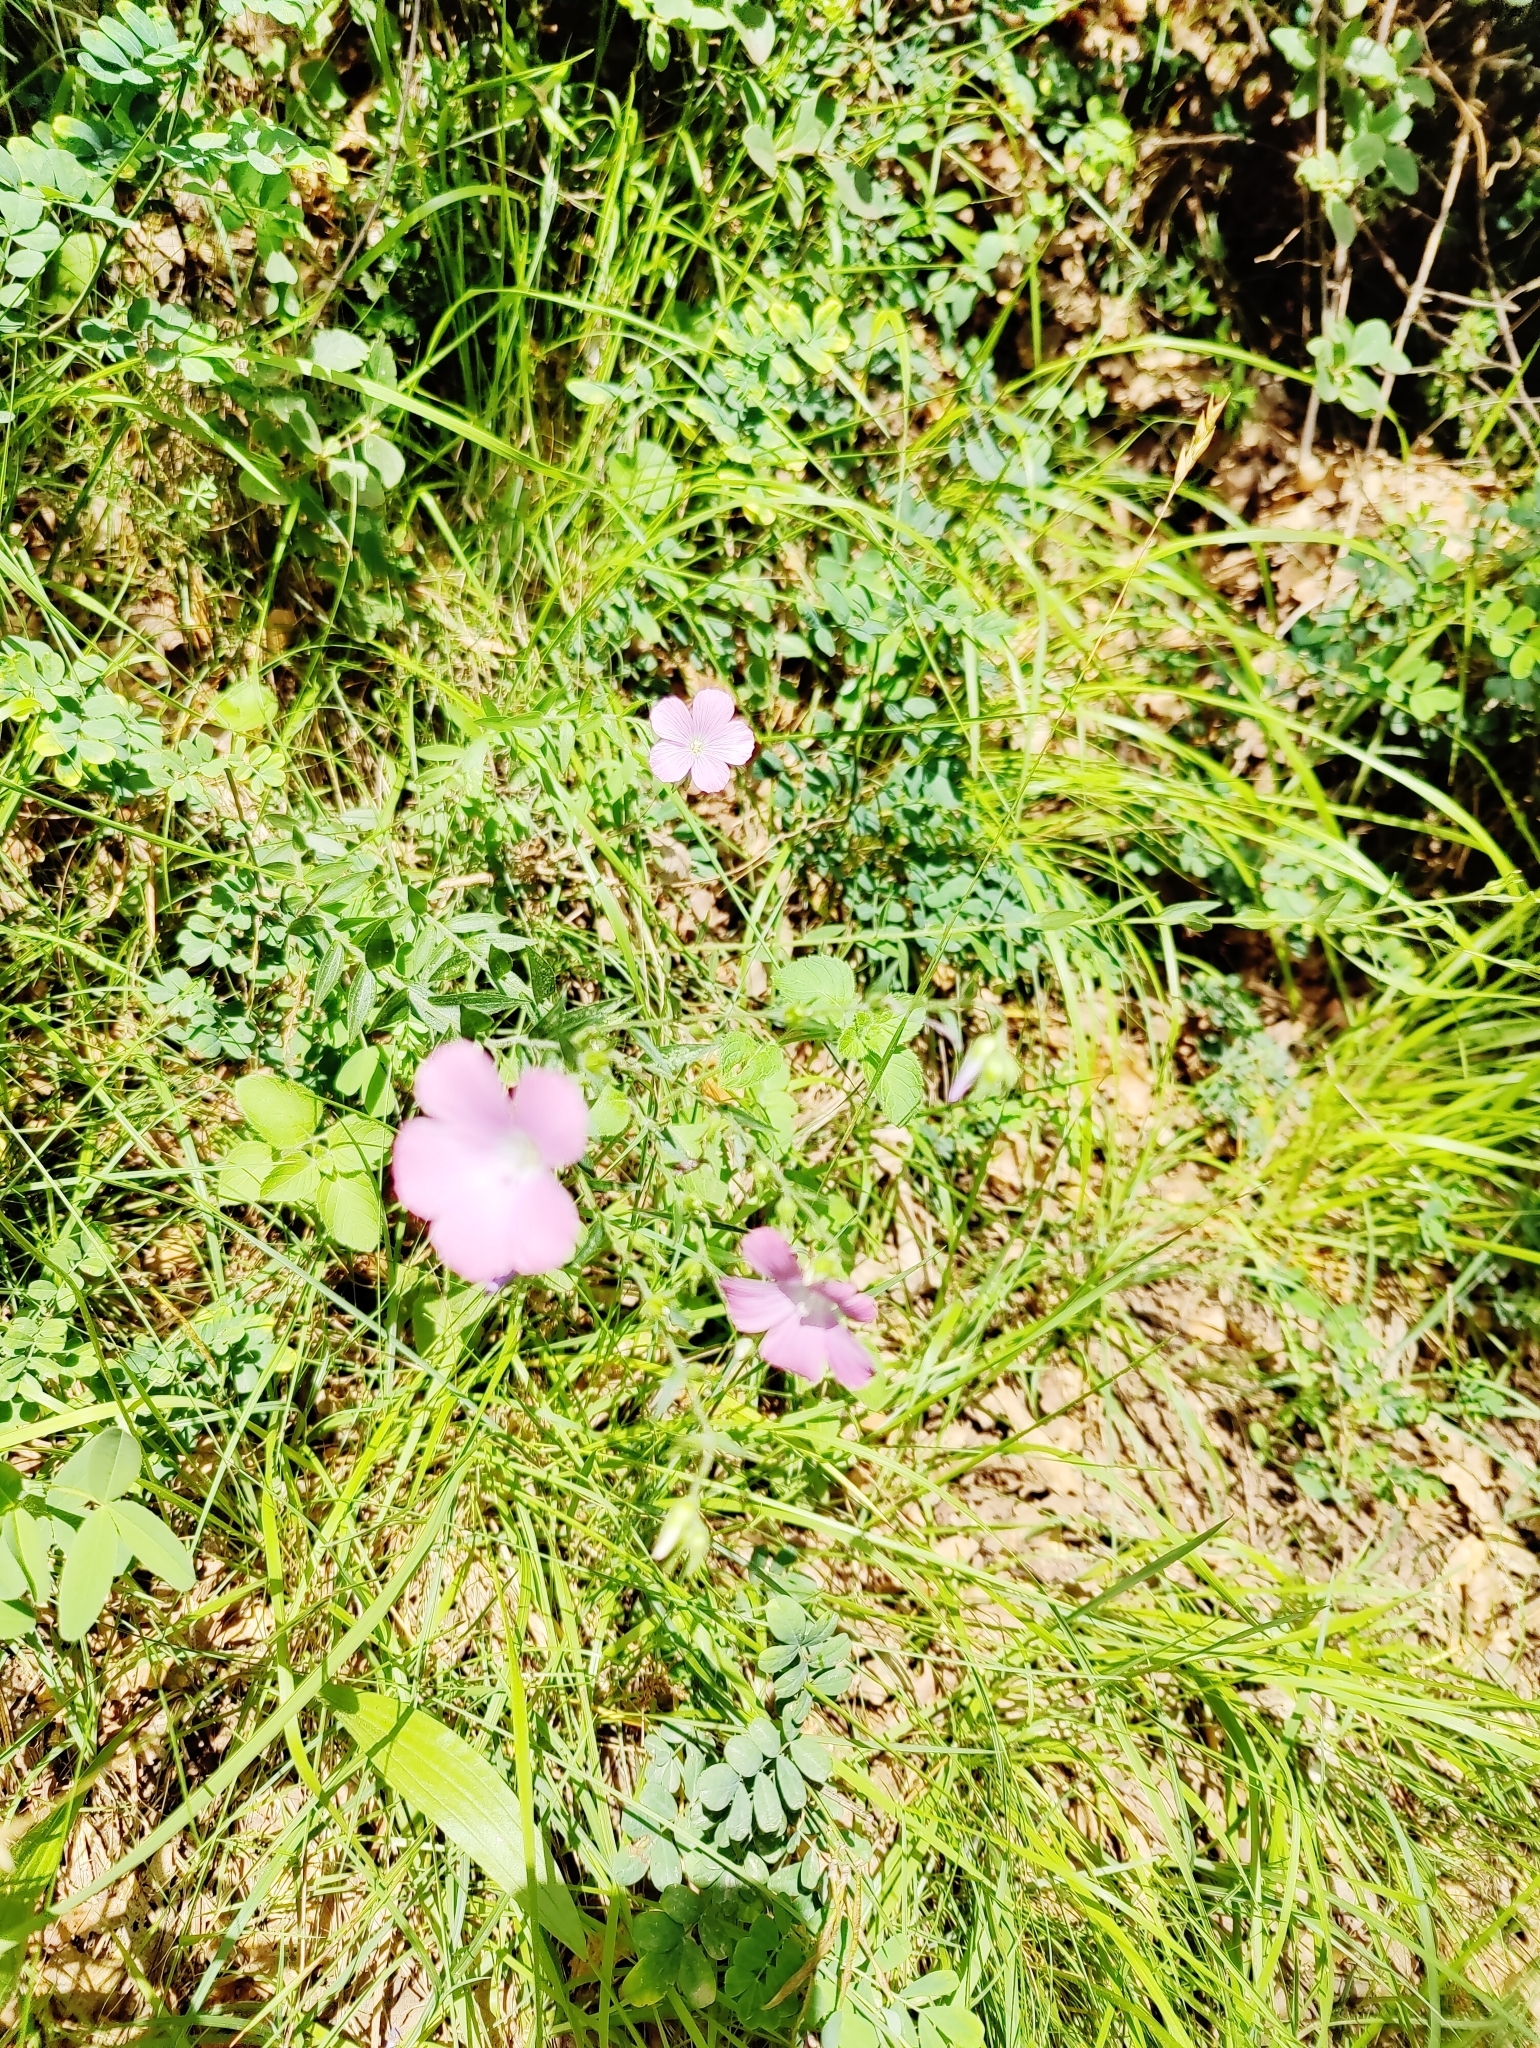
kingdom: Plantae
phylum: Tracheophyta
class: Magnoliopsida
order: Malpighiales
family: Linaceae
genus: Linum
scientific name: Linum viscosum
